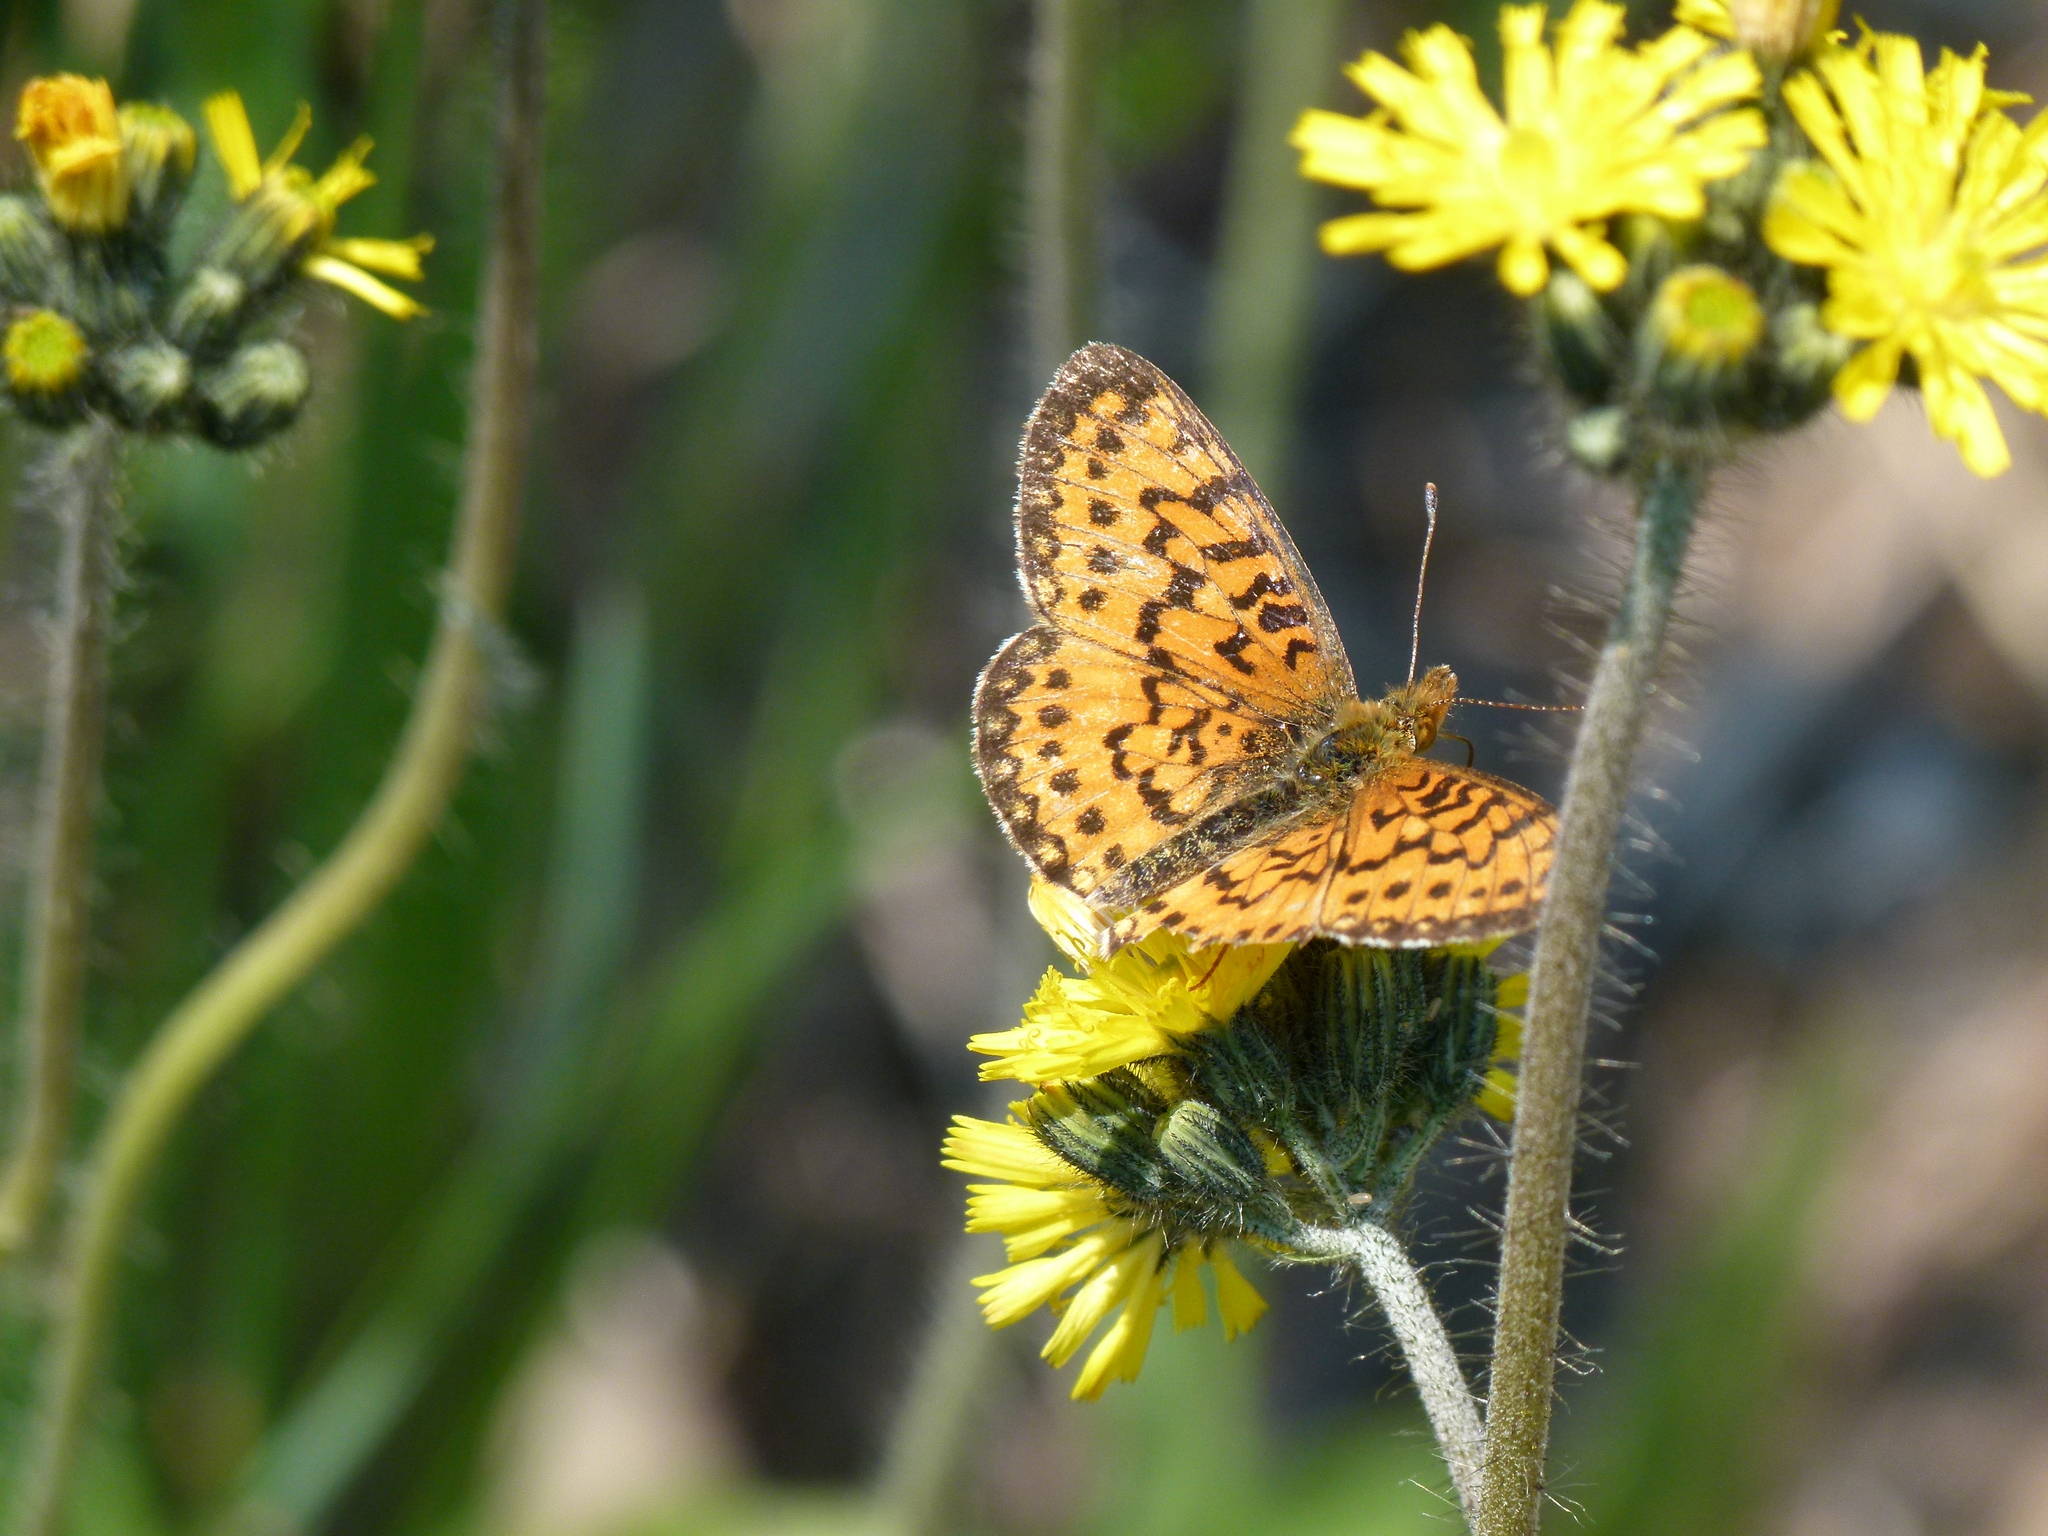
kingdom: Animalia
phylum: Arthropoda
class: Insecta
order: Lepidoptera
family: Nymphalidae
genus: Boloria
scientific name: Boloria
